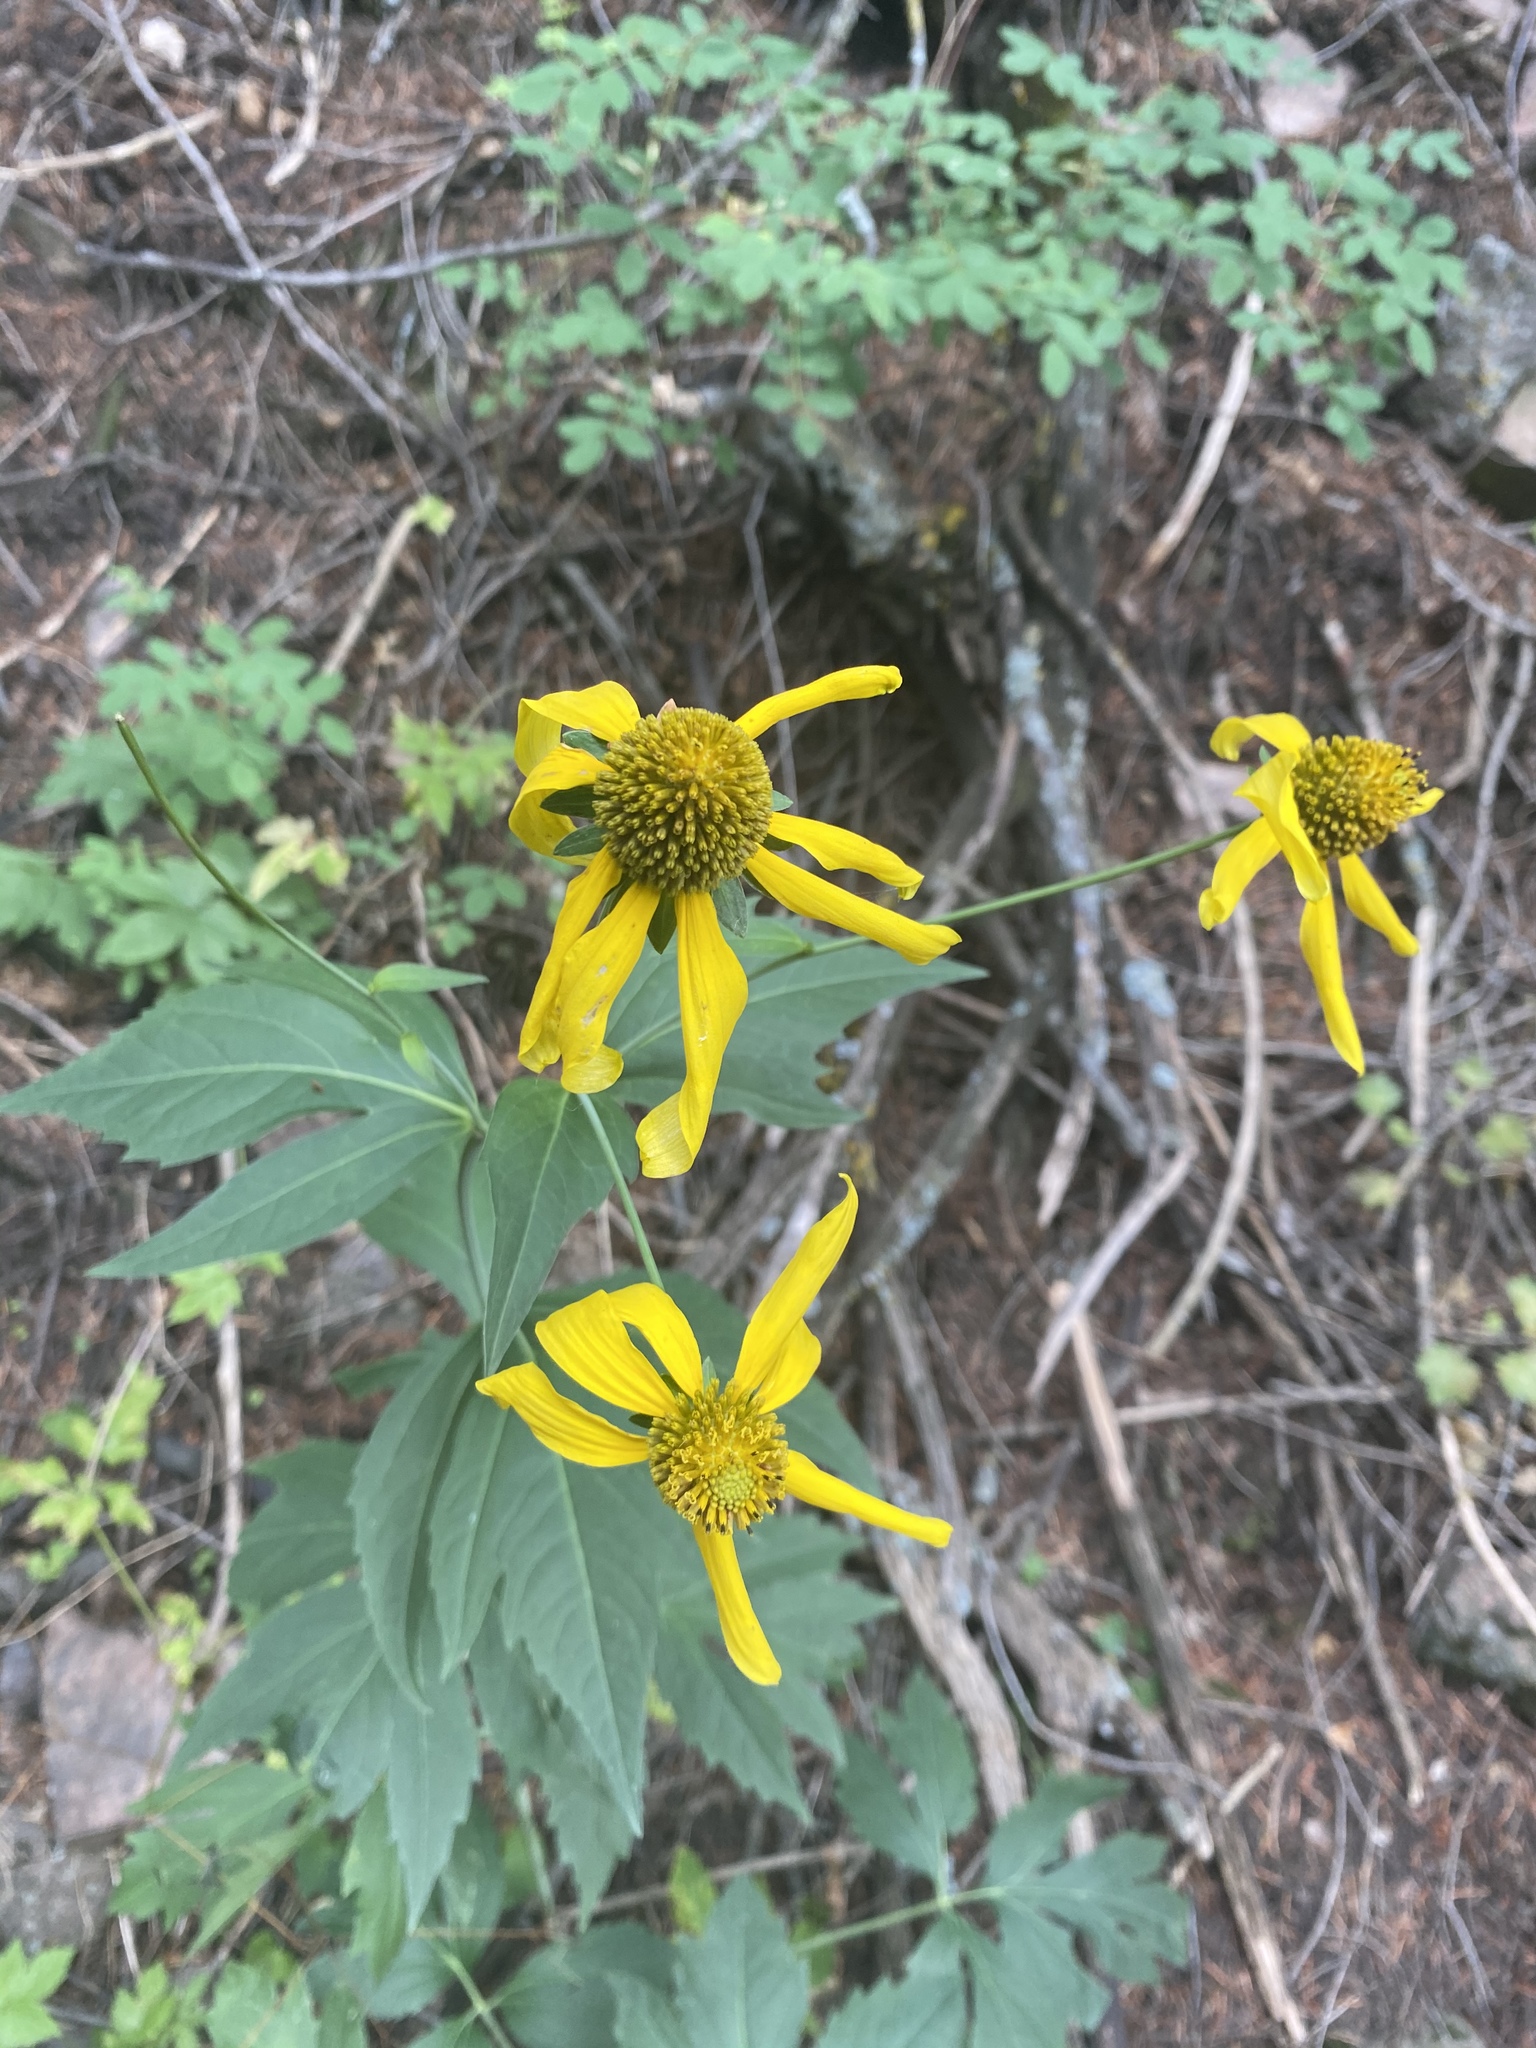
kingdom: Plantae
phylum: Tracheophyta
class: Magnoliopsida
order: Asterales
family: Asteraceae
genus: Rudbeckia
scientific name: Rudbeckia laciniata
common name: Coneflower
